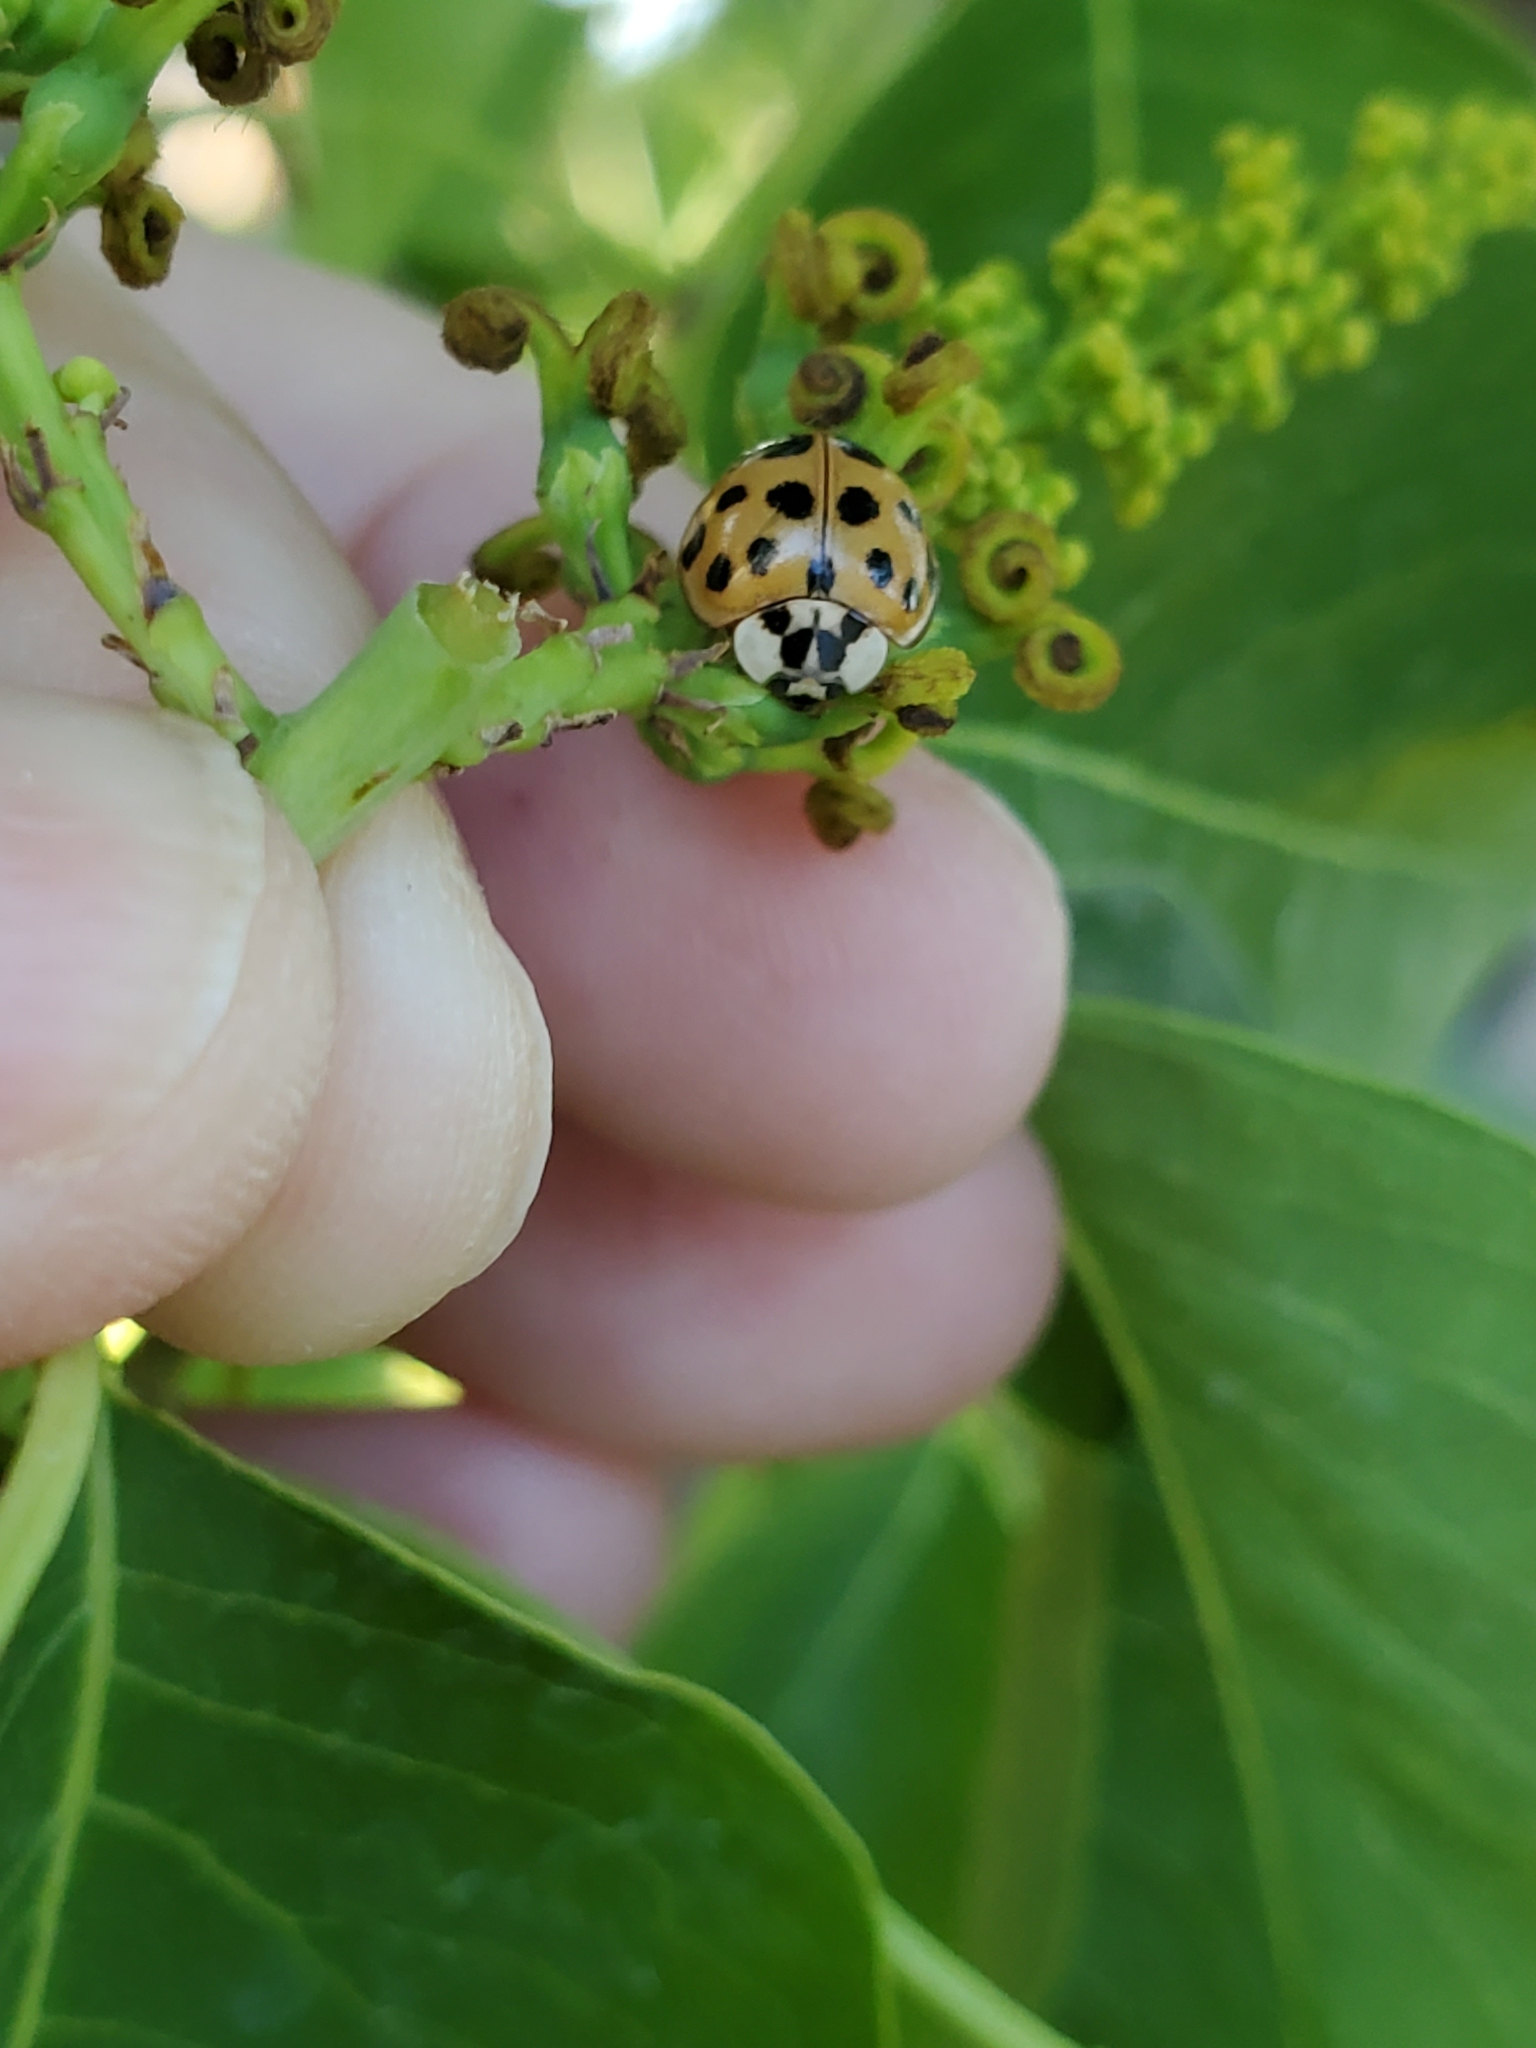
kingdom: Animalia
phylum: Arthropoda
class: Insecta
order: Coleoptera
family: Coccinellidae
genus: Harmonia
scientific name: Harmonia axyridis
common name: Harlequin ladybird
